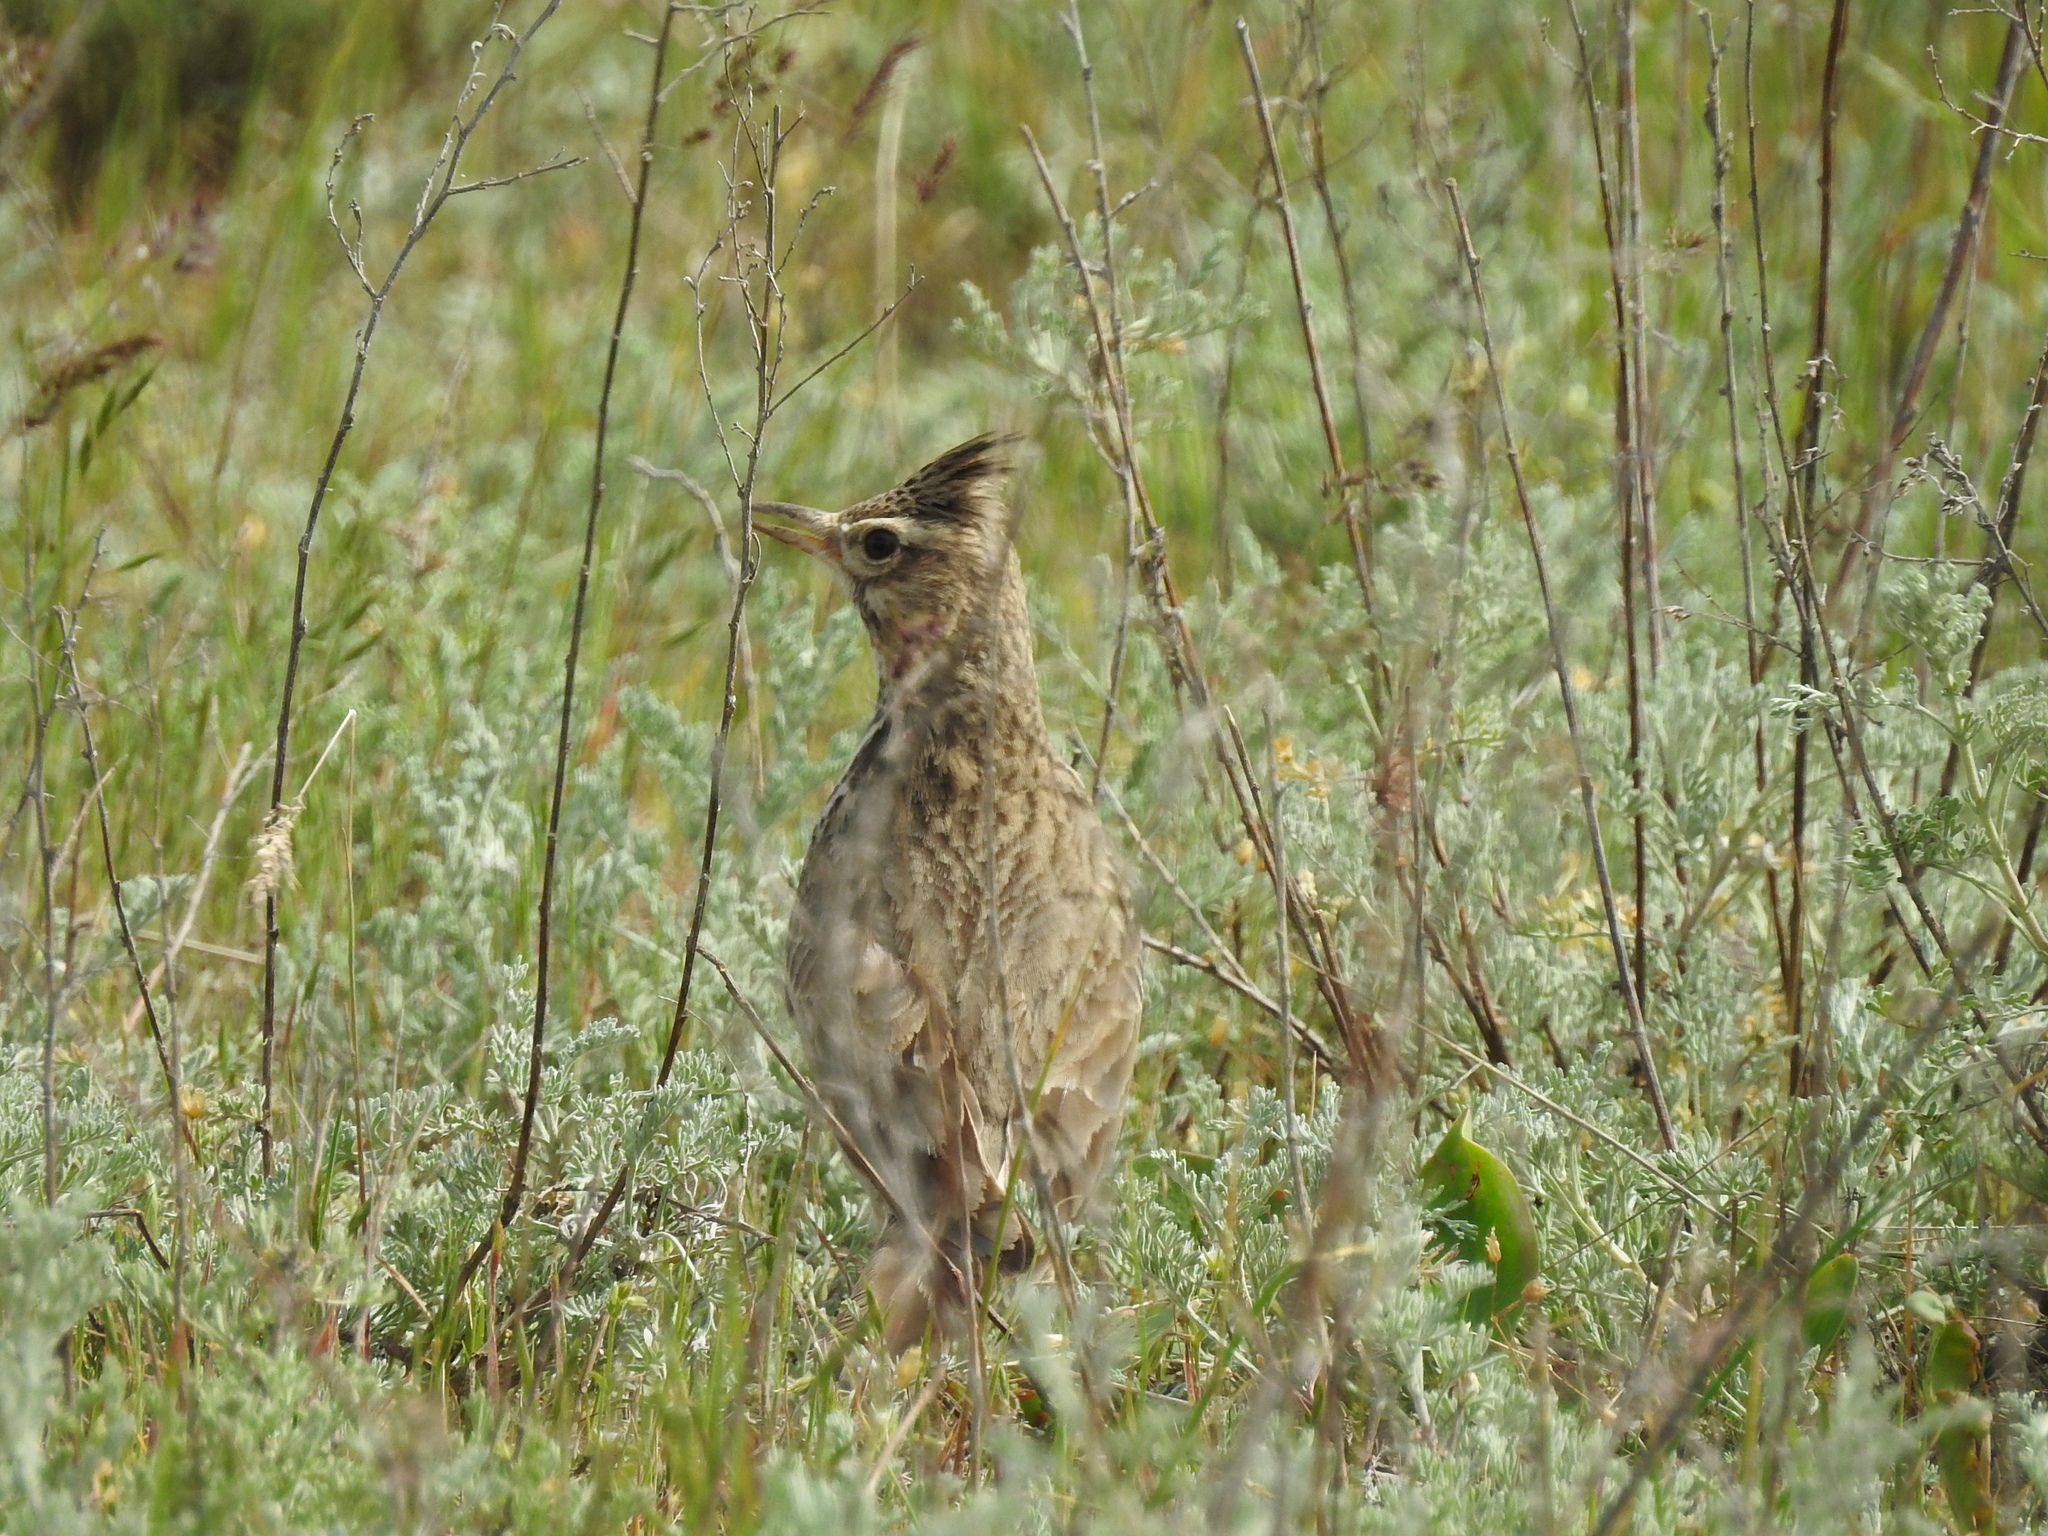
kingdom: Animalia
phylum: Chordata
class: Aves
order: Passeriformes
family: Alaudidae
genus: Galerida
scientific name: Galerida cristata
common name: Crested lark
